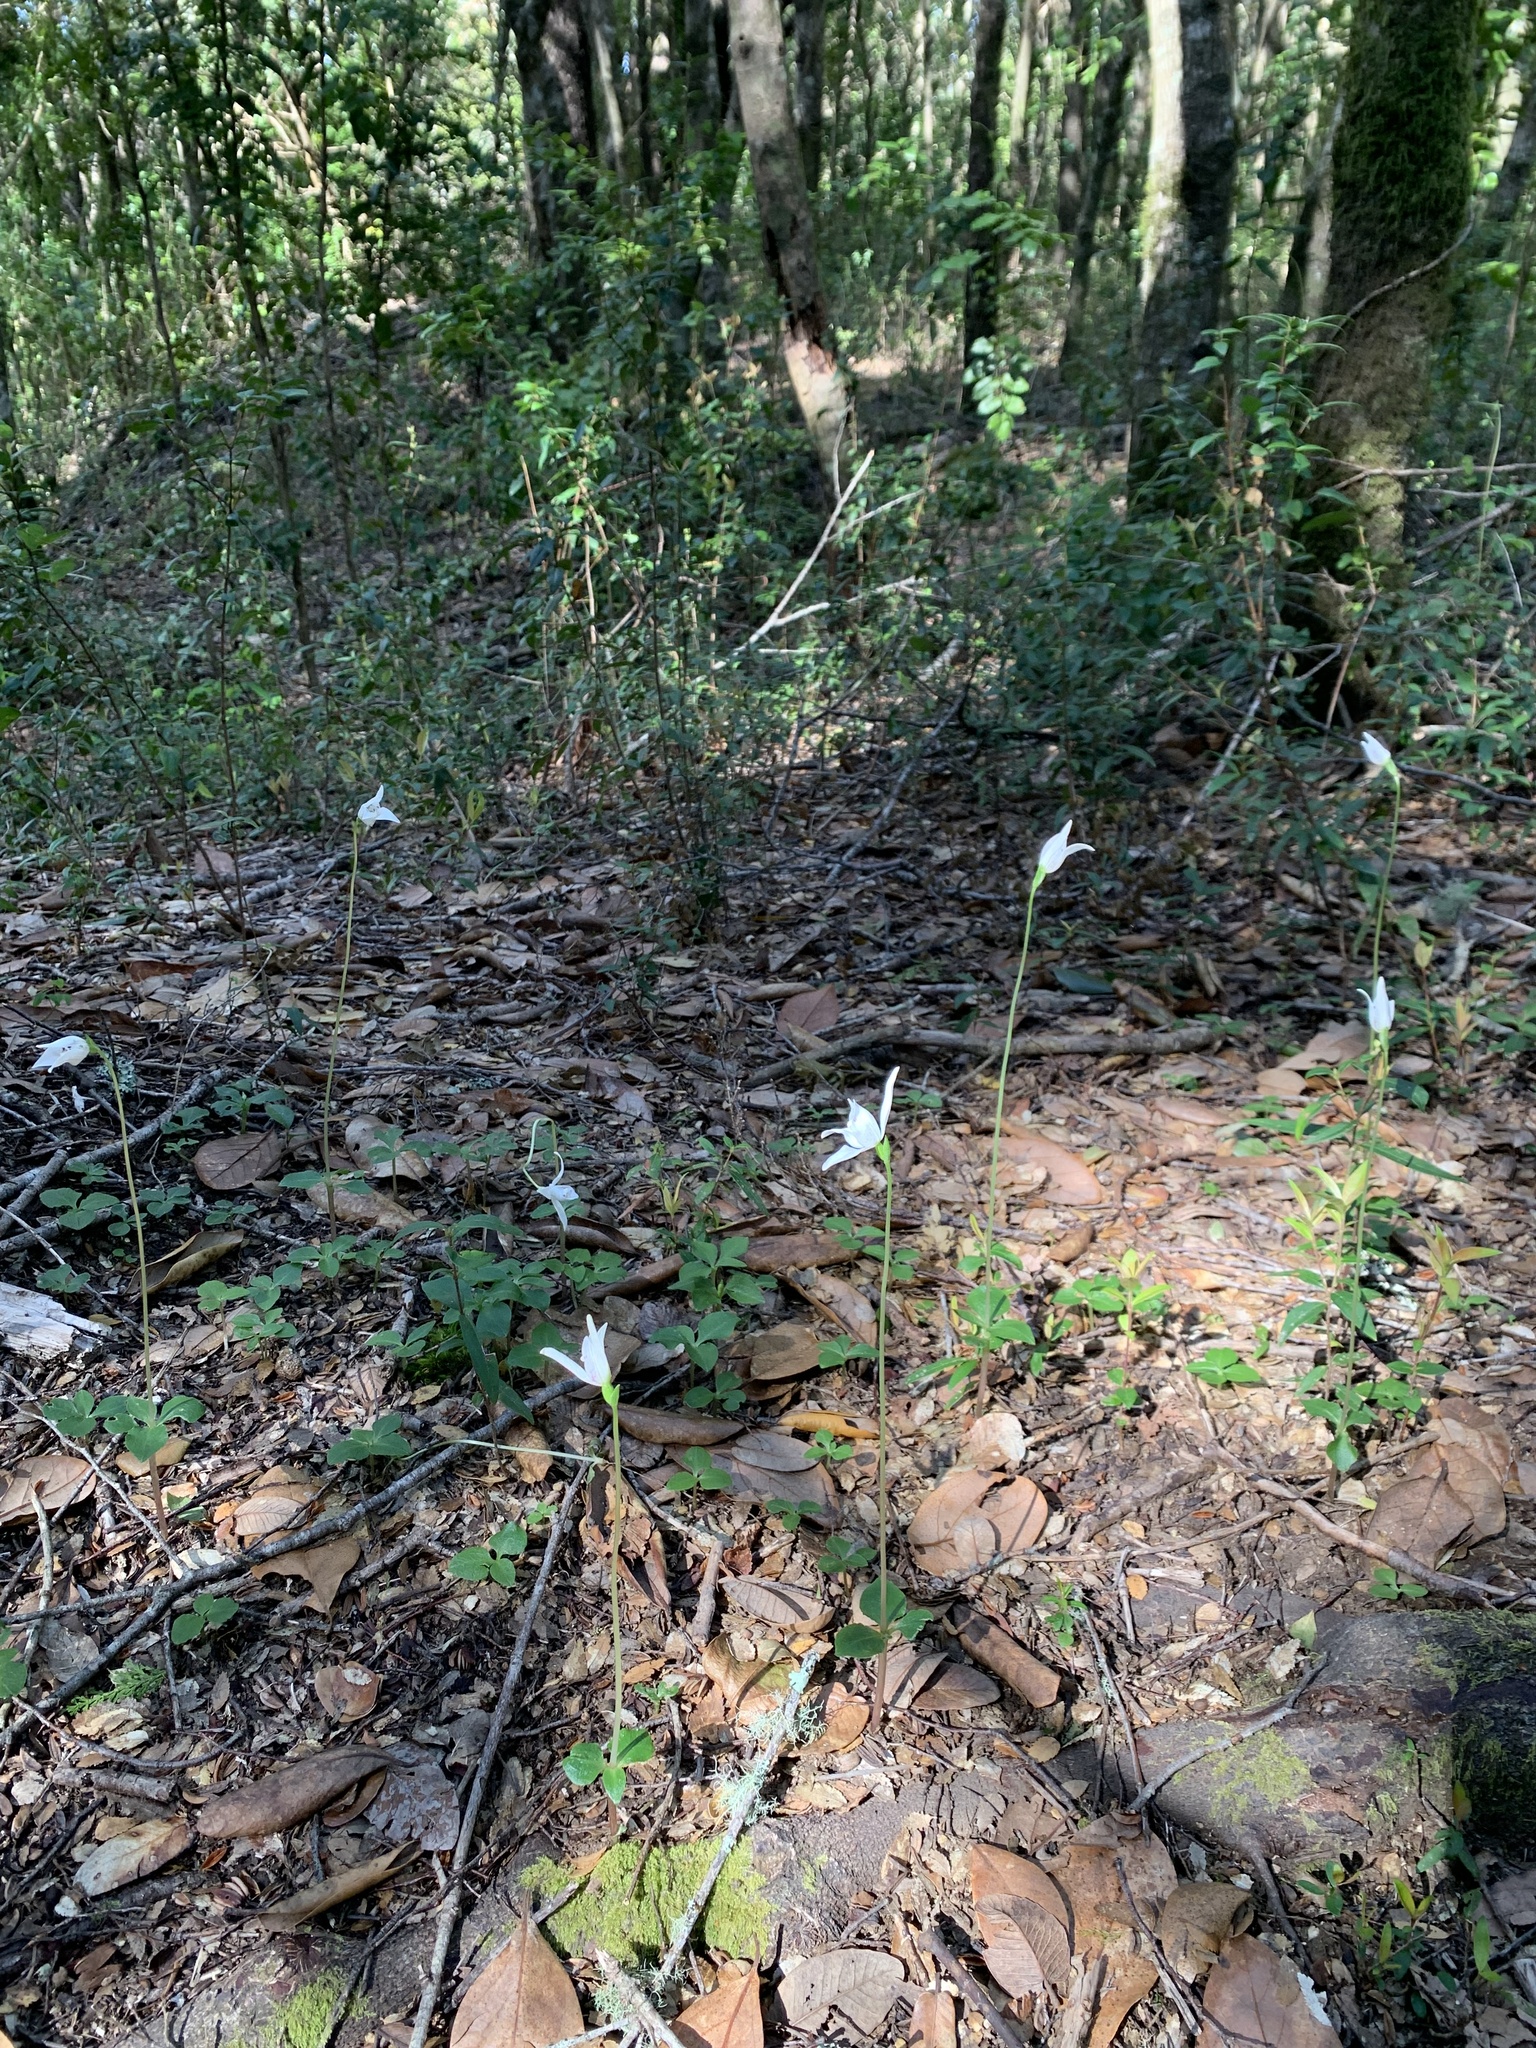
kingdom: Plantae
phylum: Tracheophyta
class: Liliopsida
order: Asparagales
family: Orchidaceae
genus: Codonorchis
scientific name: Codonorchis lessonii
